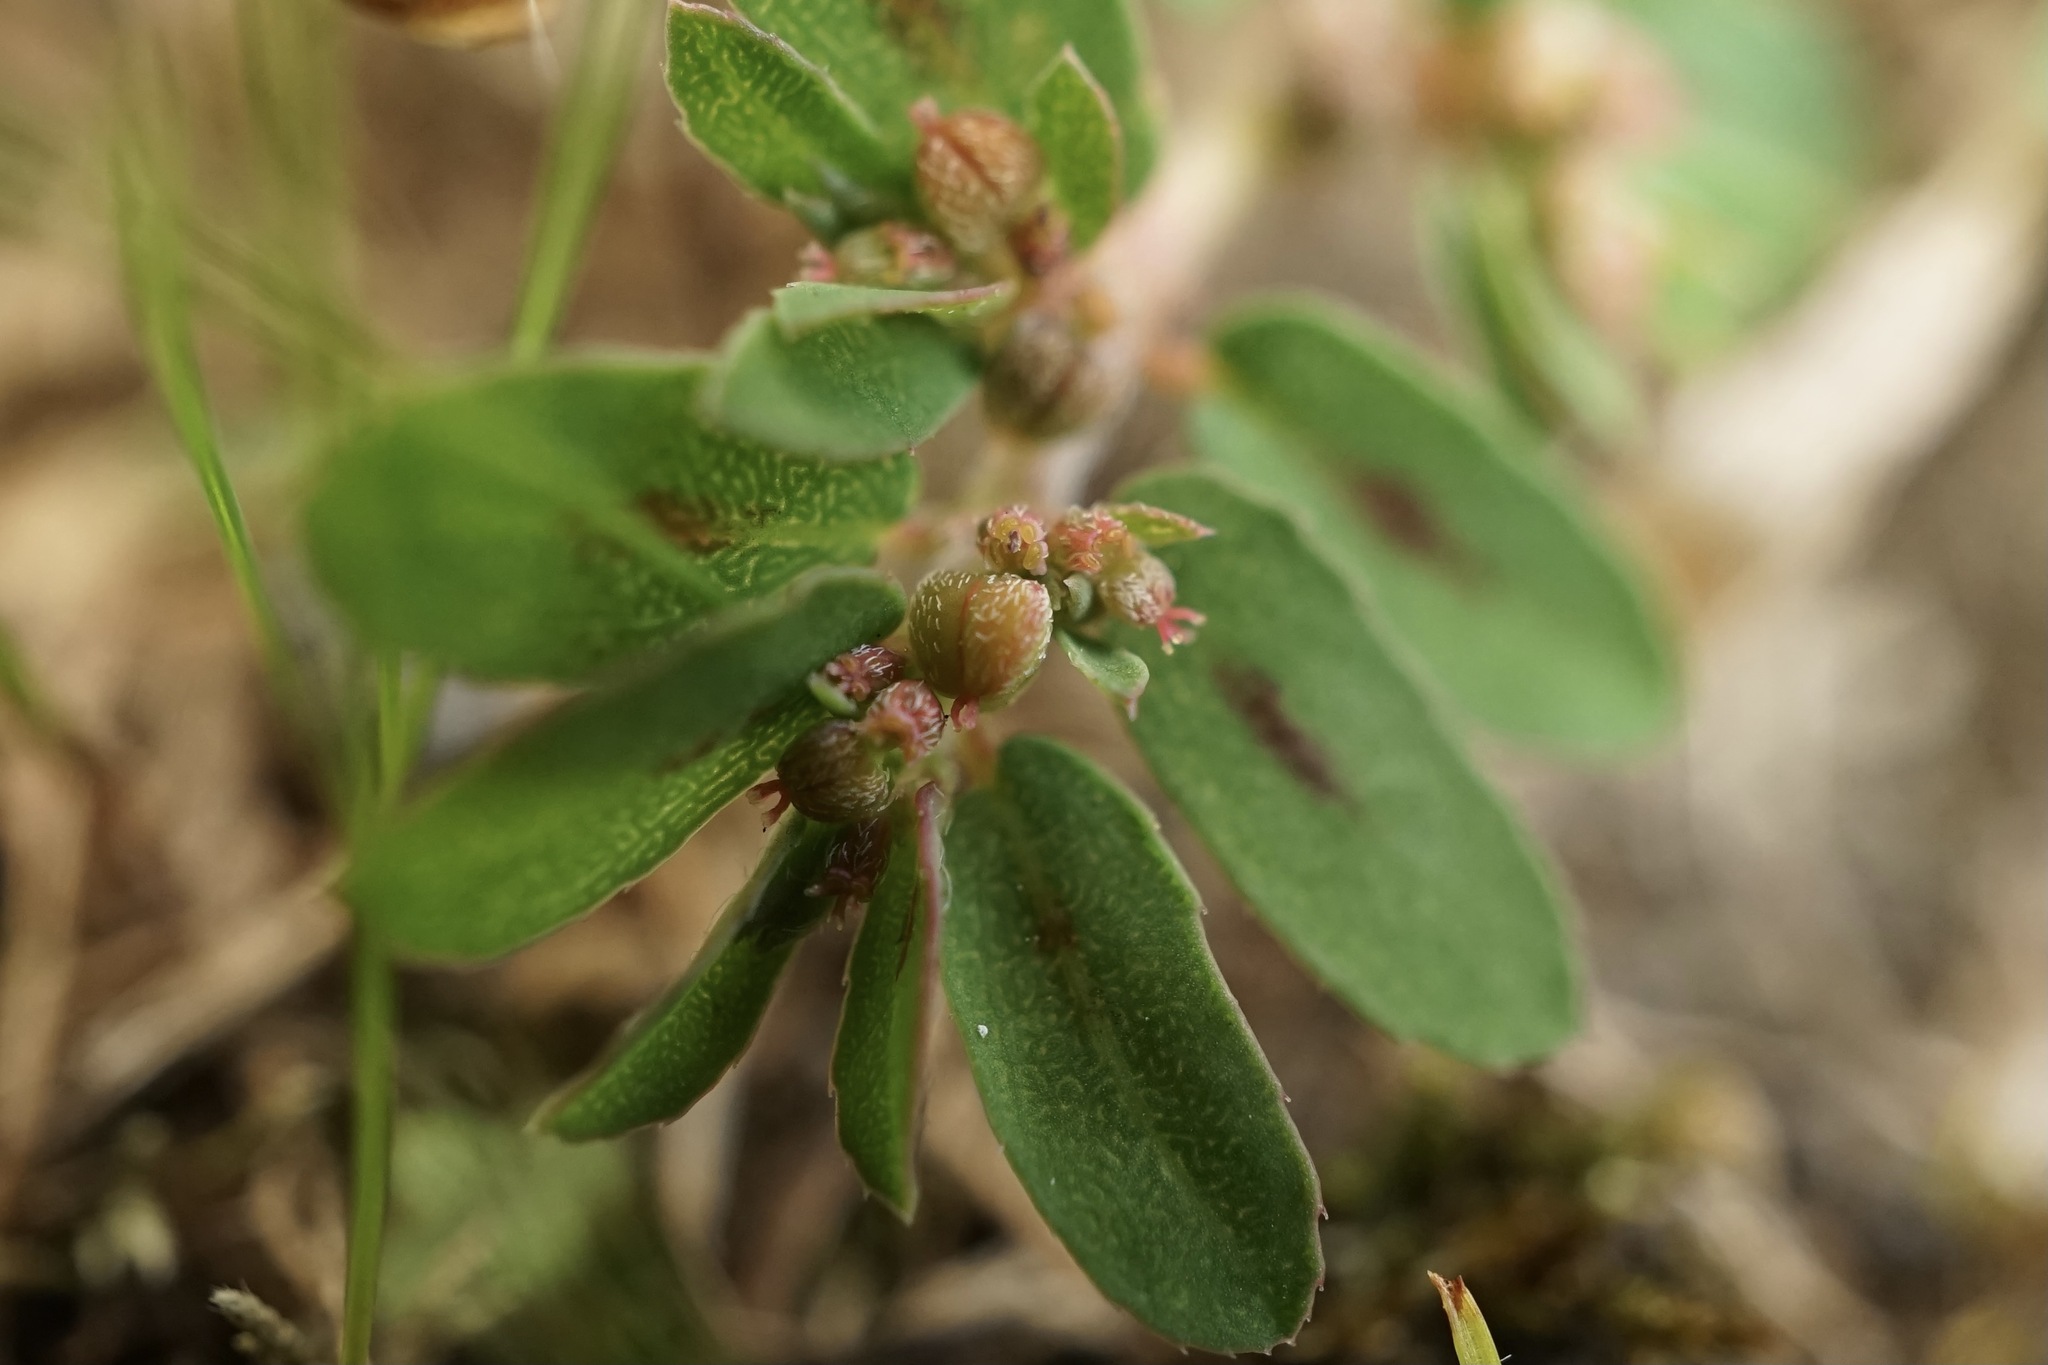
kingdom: Plantae
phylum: Tracheophyta
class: Magnoliopsida
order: Malpighiales
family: Euphorbiaceae
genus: Euphorbia
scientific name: Euphorbia maculata
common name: Spotted spurge
